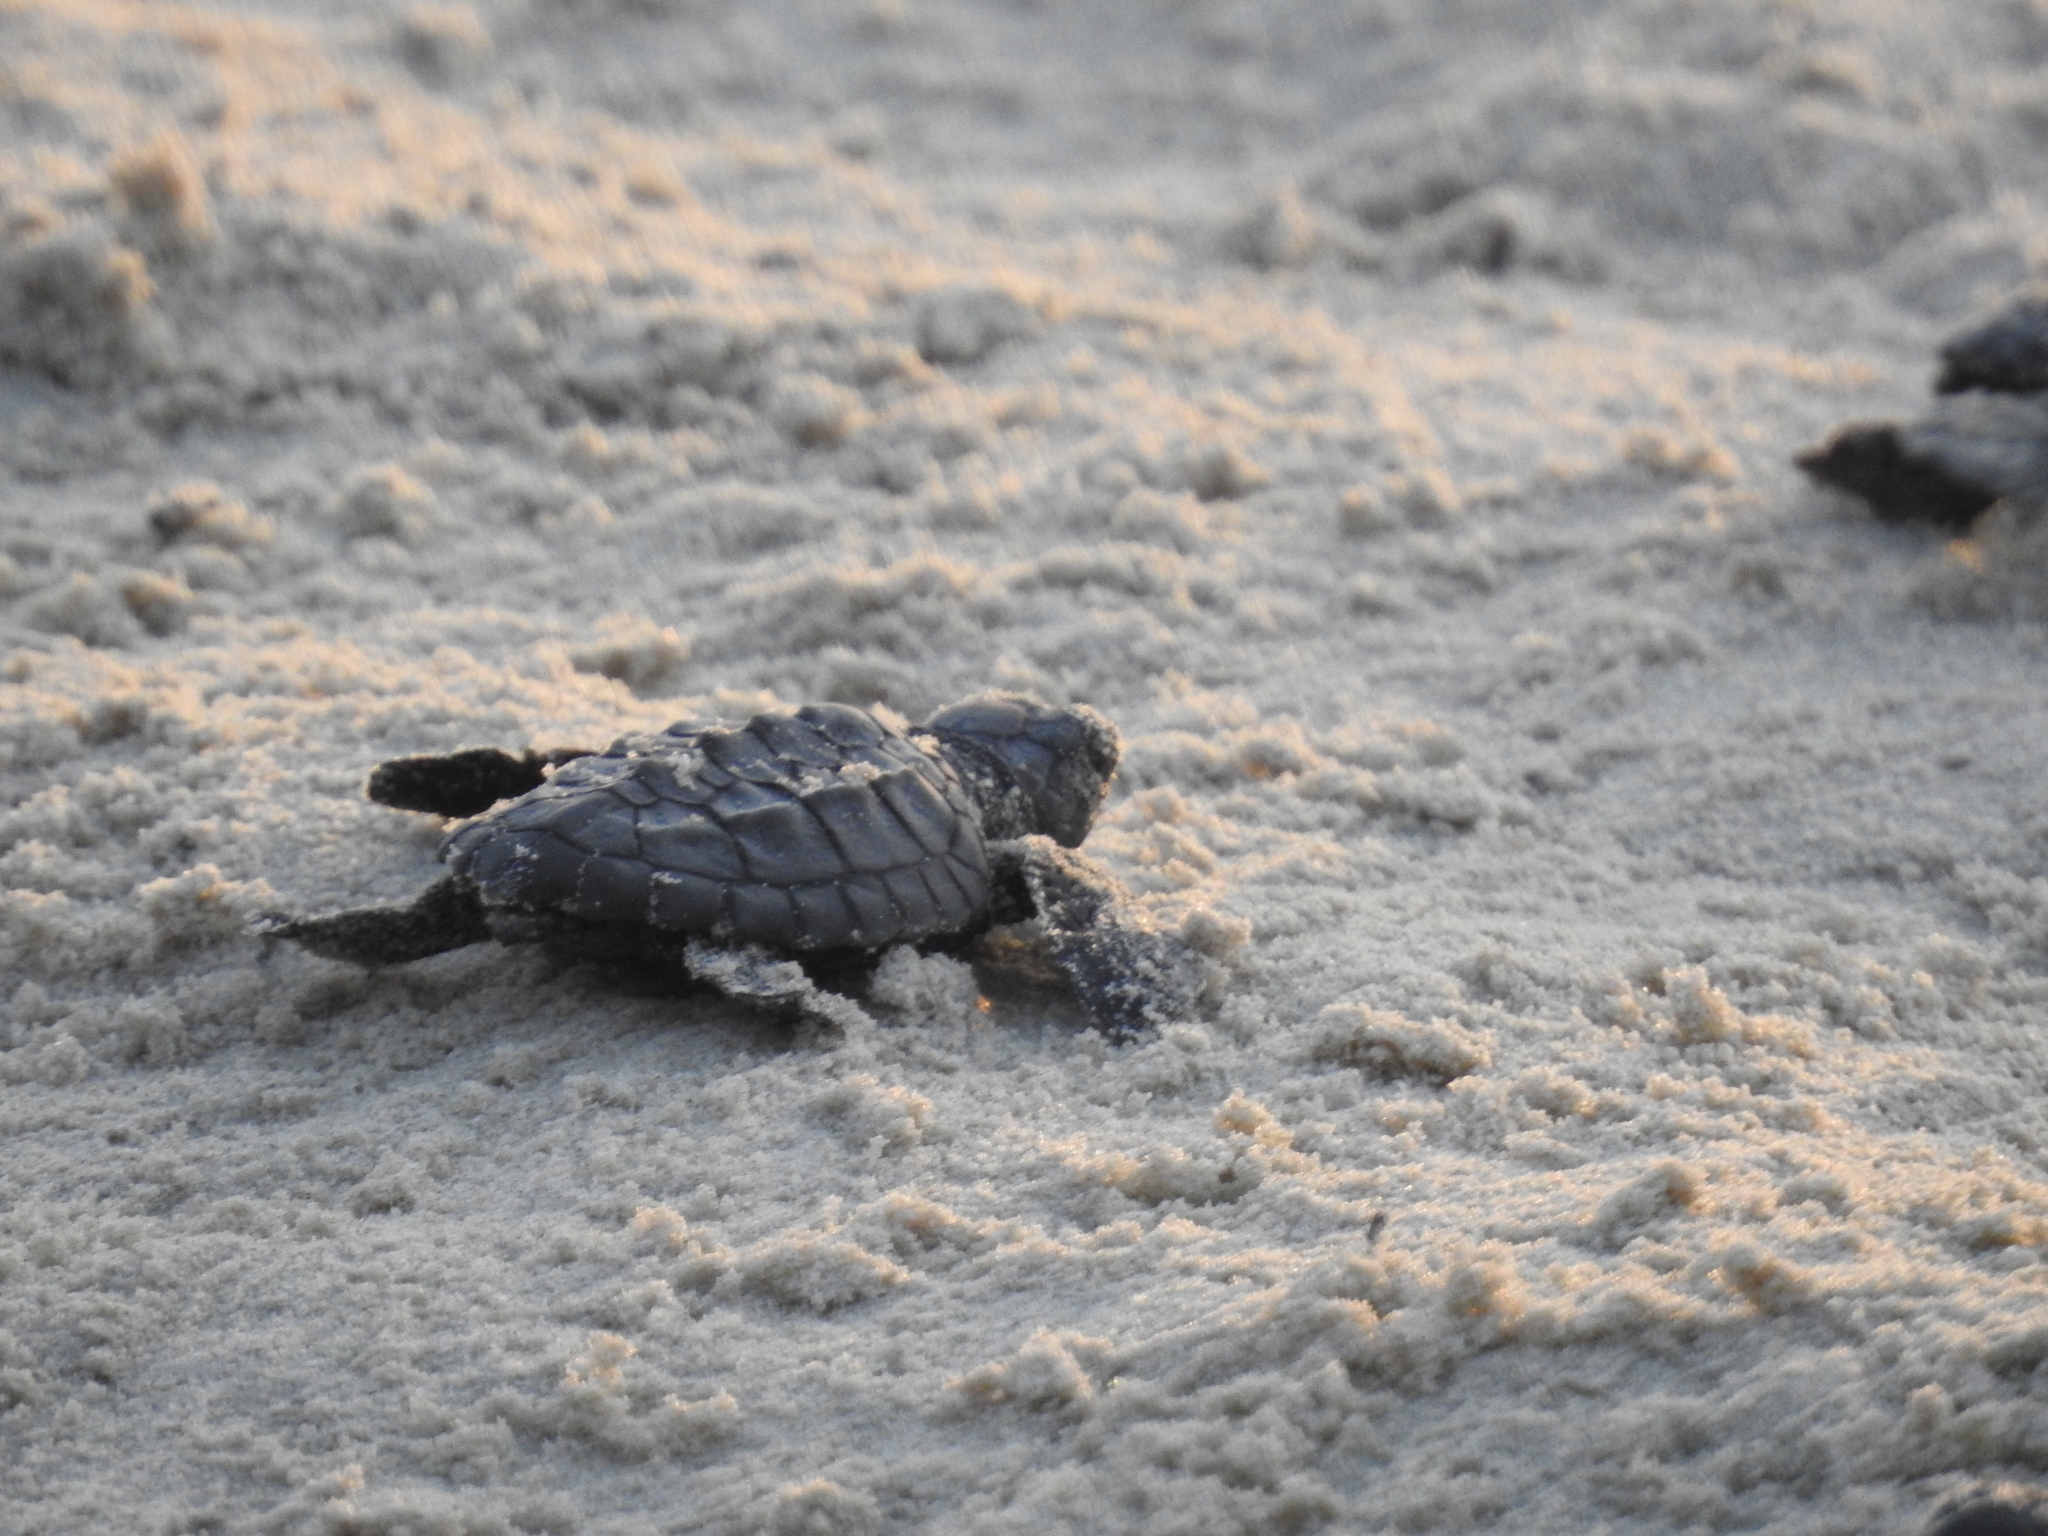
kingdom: Animalia
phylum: Chordata
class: Testudines
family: Cheloniidae
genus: Lepidochelys
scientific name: Lepidochelys kempii
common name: Kemp's ridley turtle
